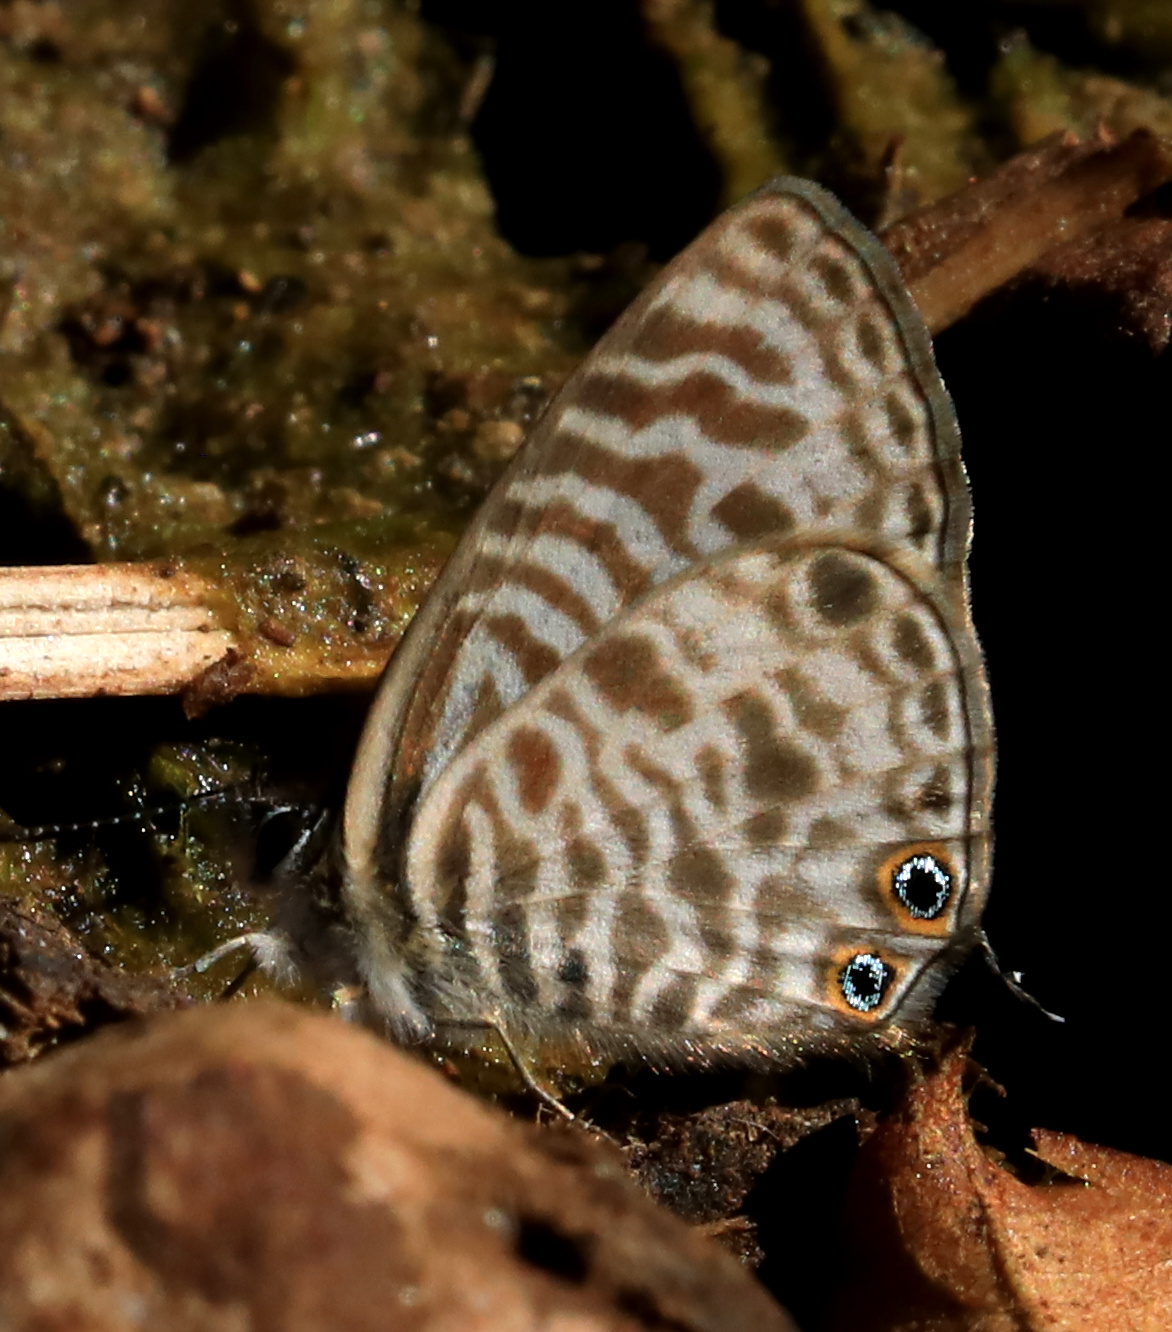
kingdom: Animalia
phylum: Arthropoda
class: Insecta
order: Lepidoptera
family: Lycaenidae
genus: Leptotes
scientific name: Leptotes
